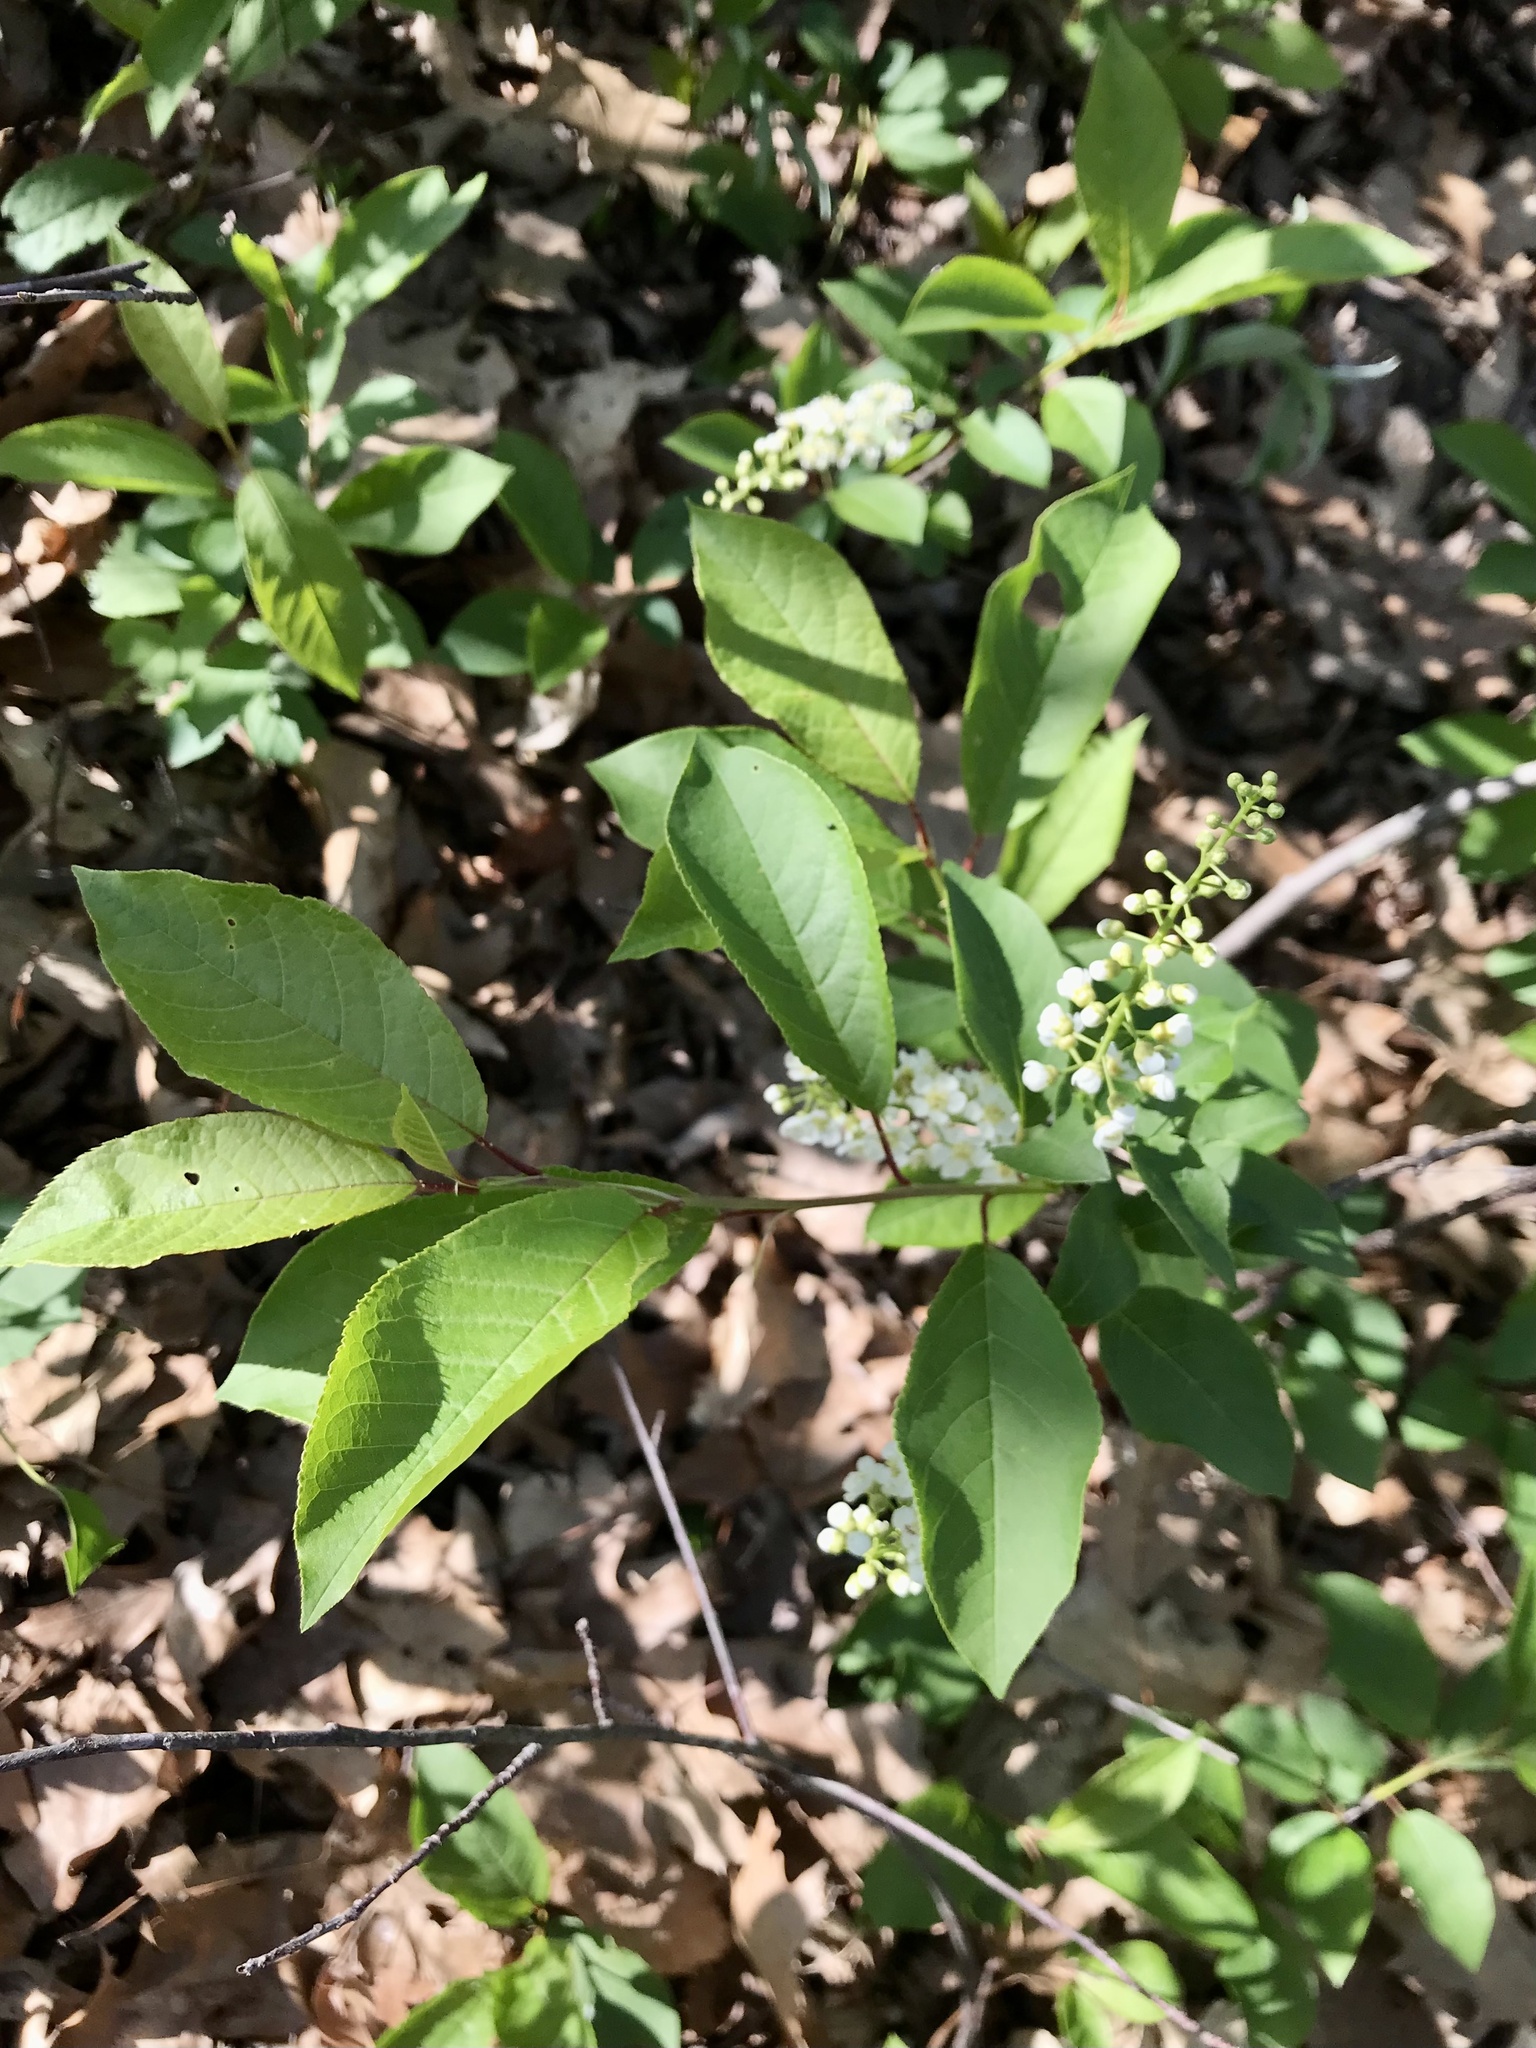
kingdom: Plantae
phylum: Tracheophyta
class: Magnoliopsida
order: Rosales
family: Rosaceae
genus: Prunus
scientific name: Prunus virginiana
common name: Chokecherry
